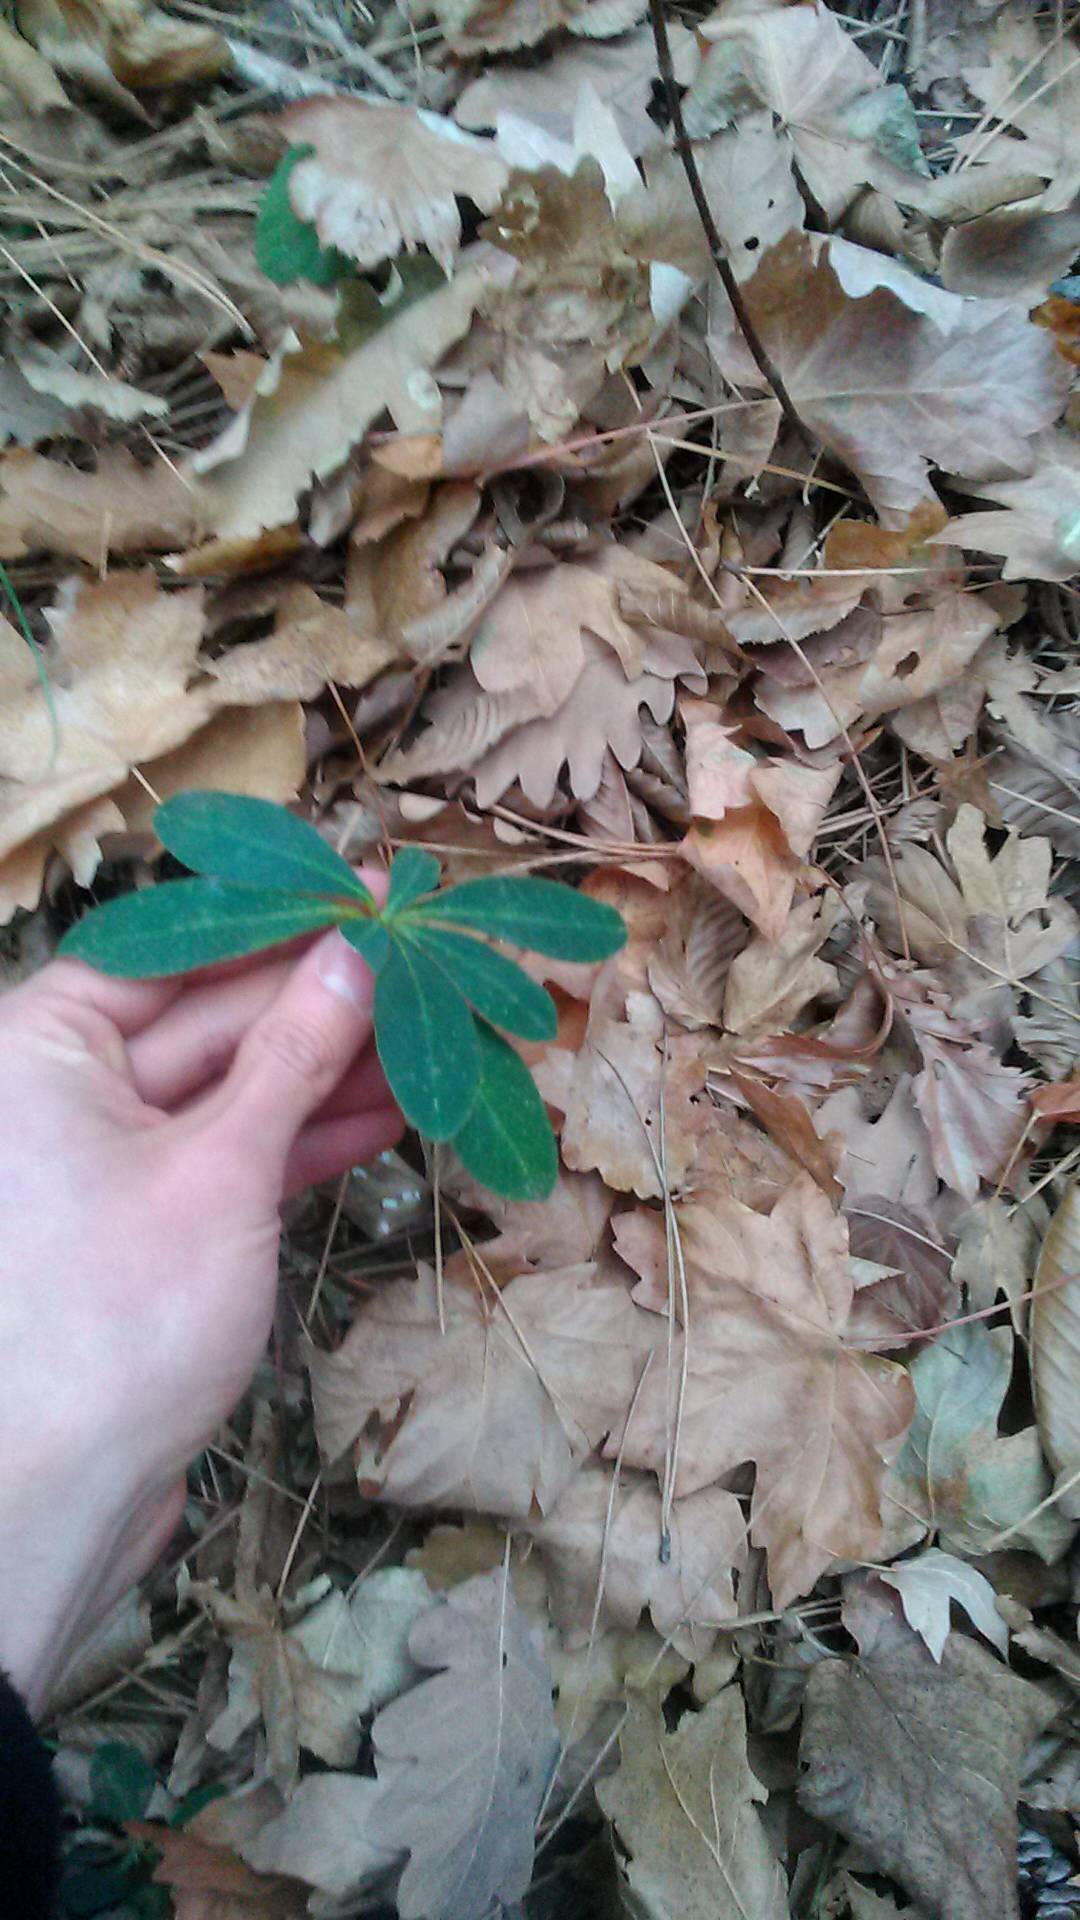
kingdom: Plantae
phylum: Tracheophyta
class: Magnoliopsida
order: Malpighiales
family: Euphorbiaceae
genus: Euphorbia
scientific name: Euphorbia amygdaloides
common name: Wood spurge
